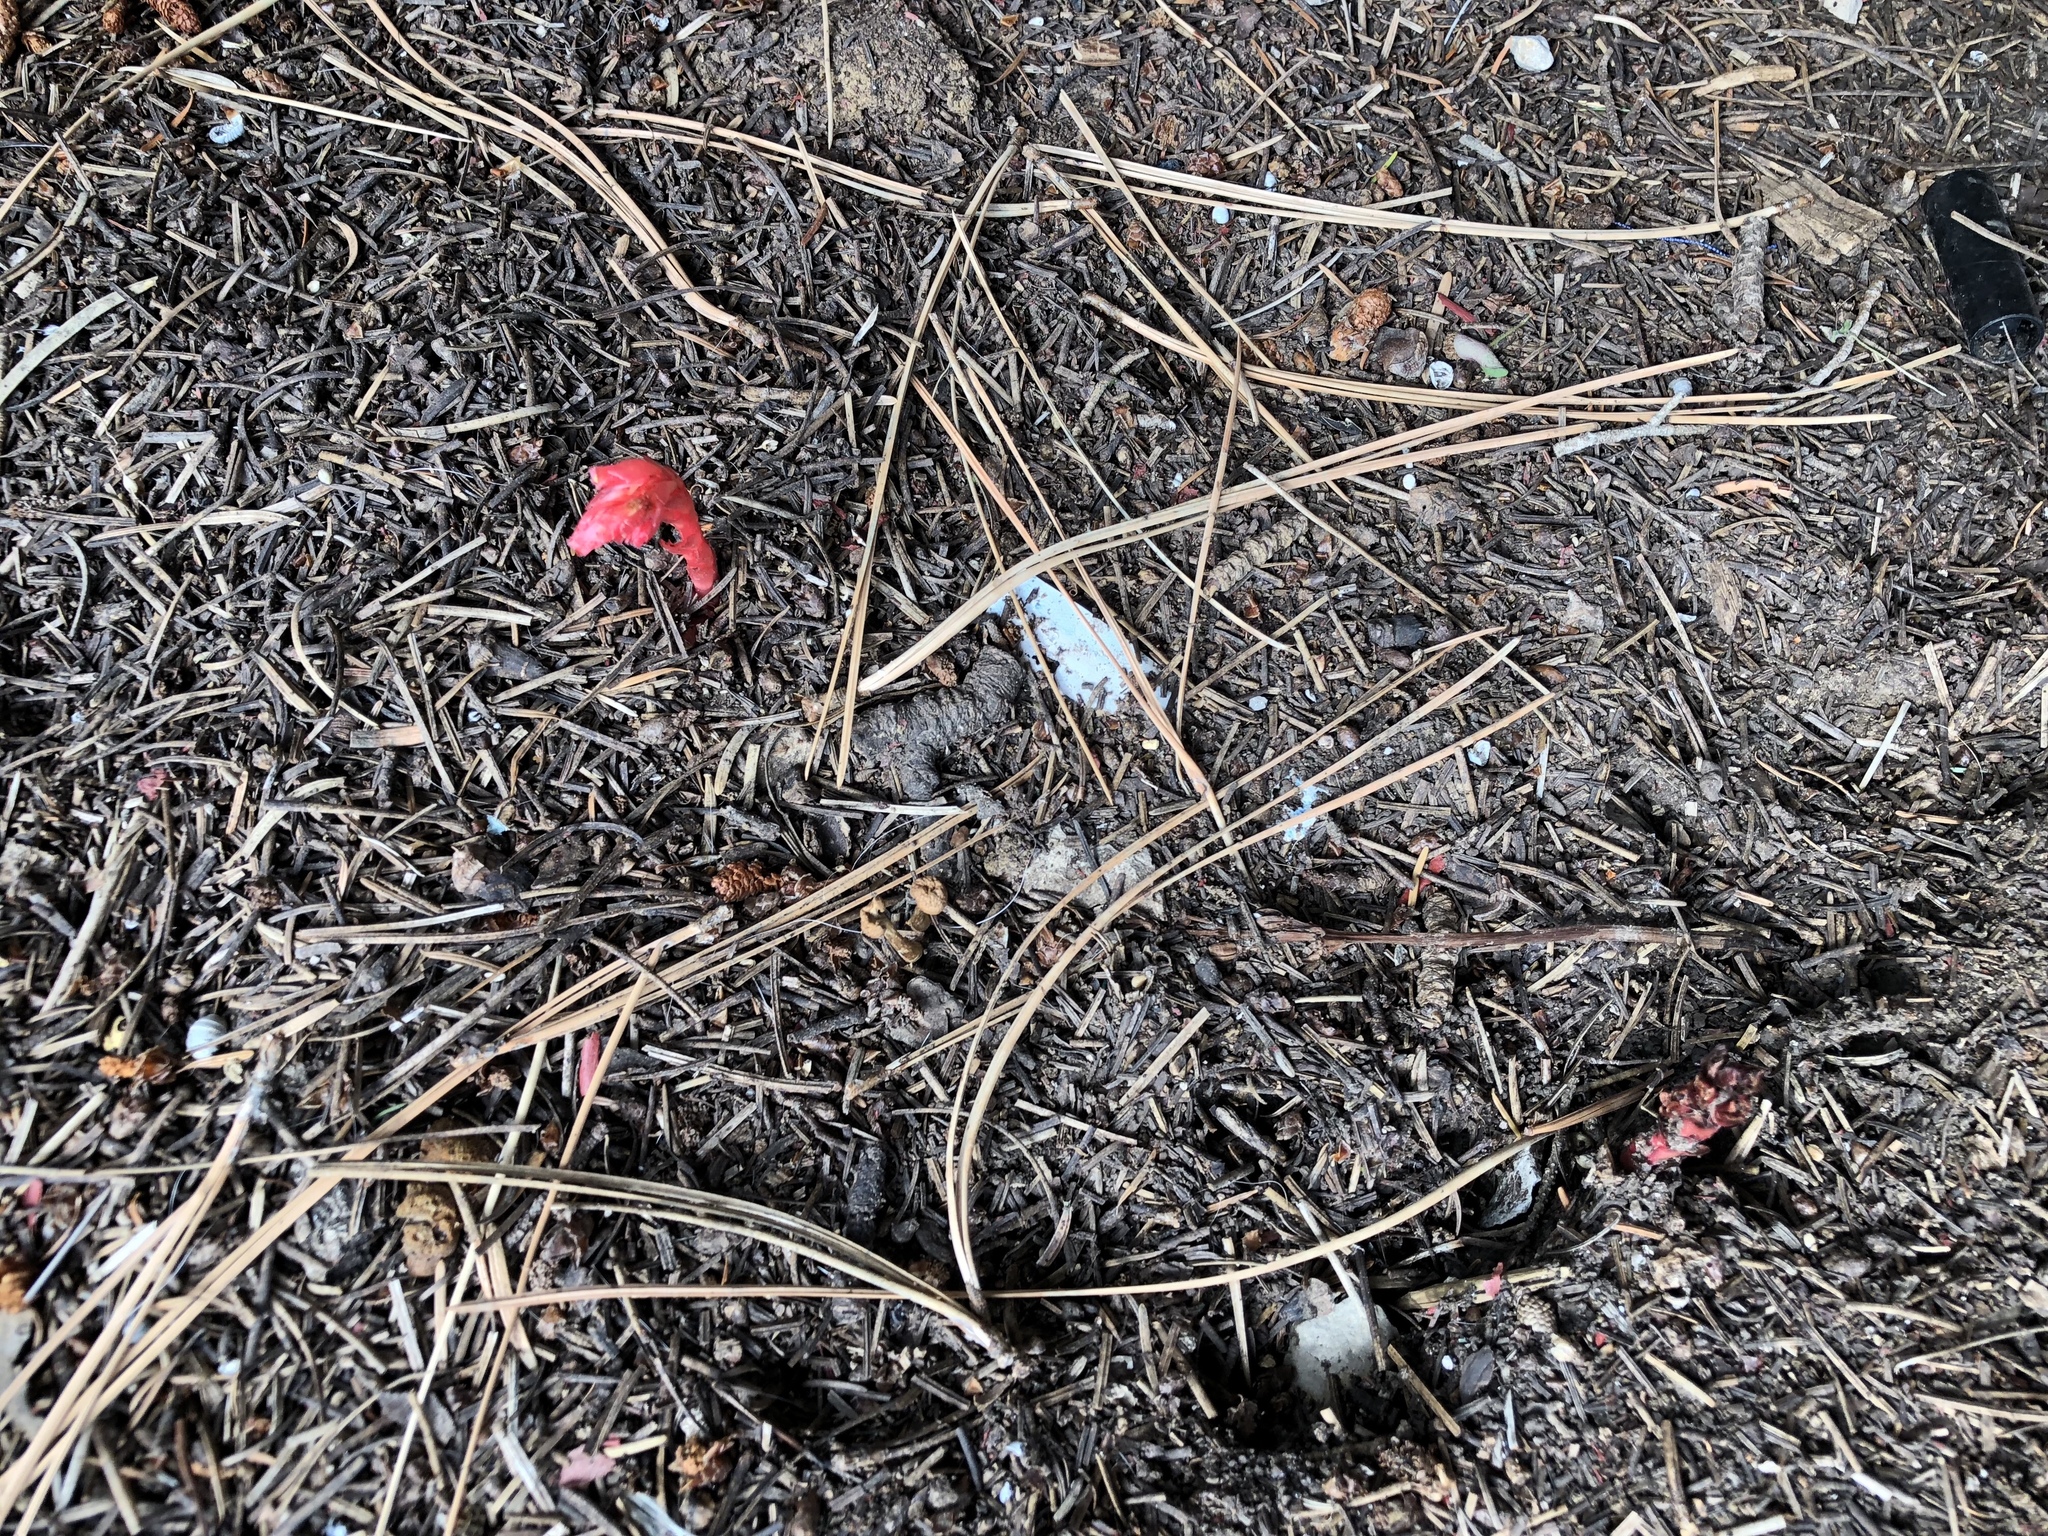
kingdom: Plantae
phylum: Tracheophyta
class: Magnoliopsida
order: Ericales
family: Ericaceae
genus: Hypopitys
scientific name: Hypopitys monotropa
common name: Yellow bird's-nest
